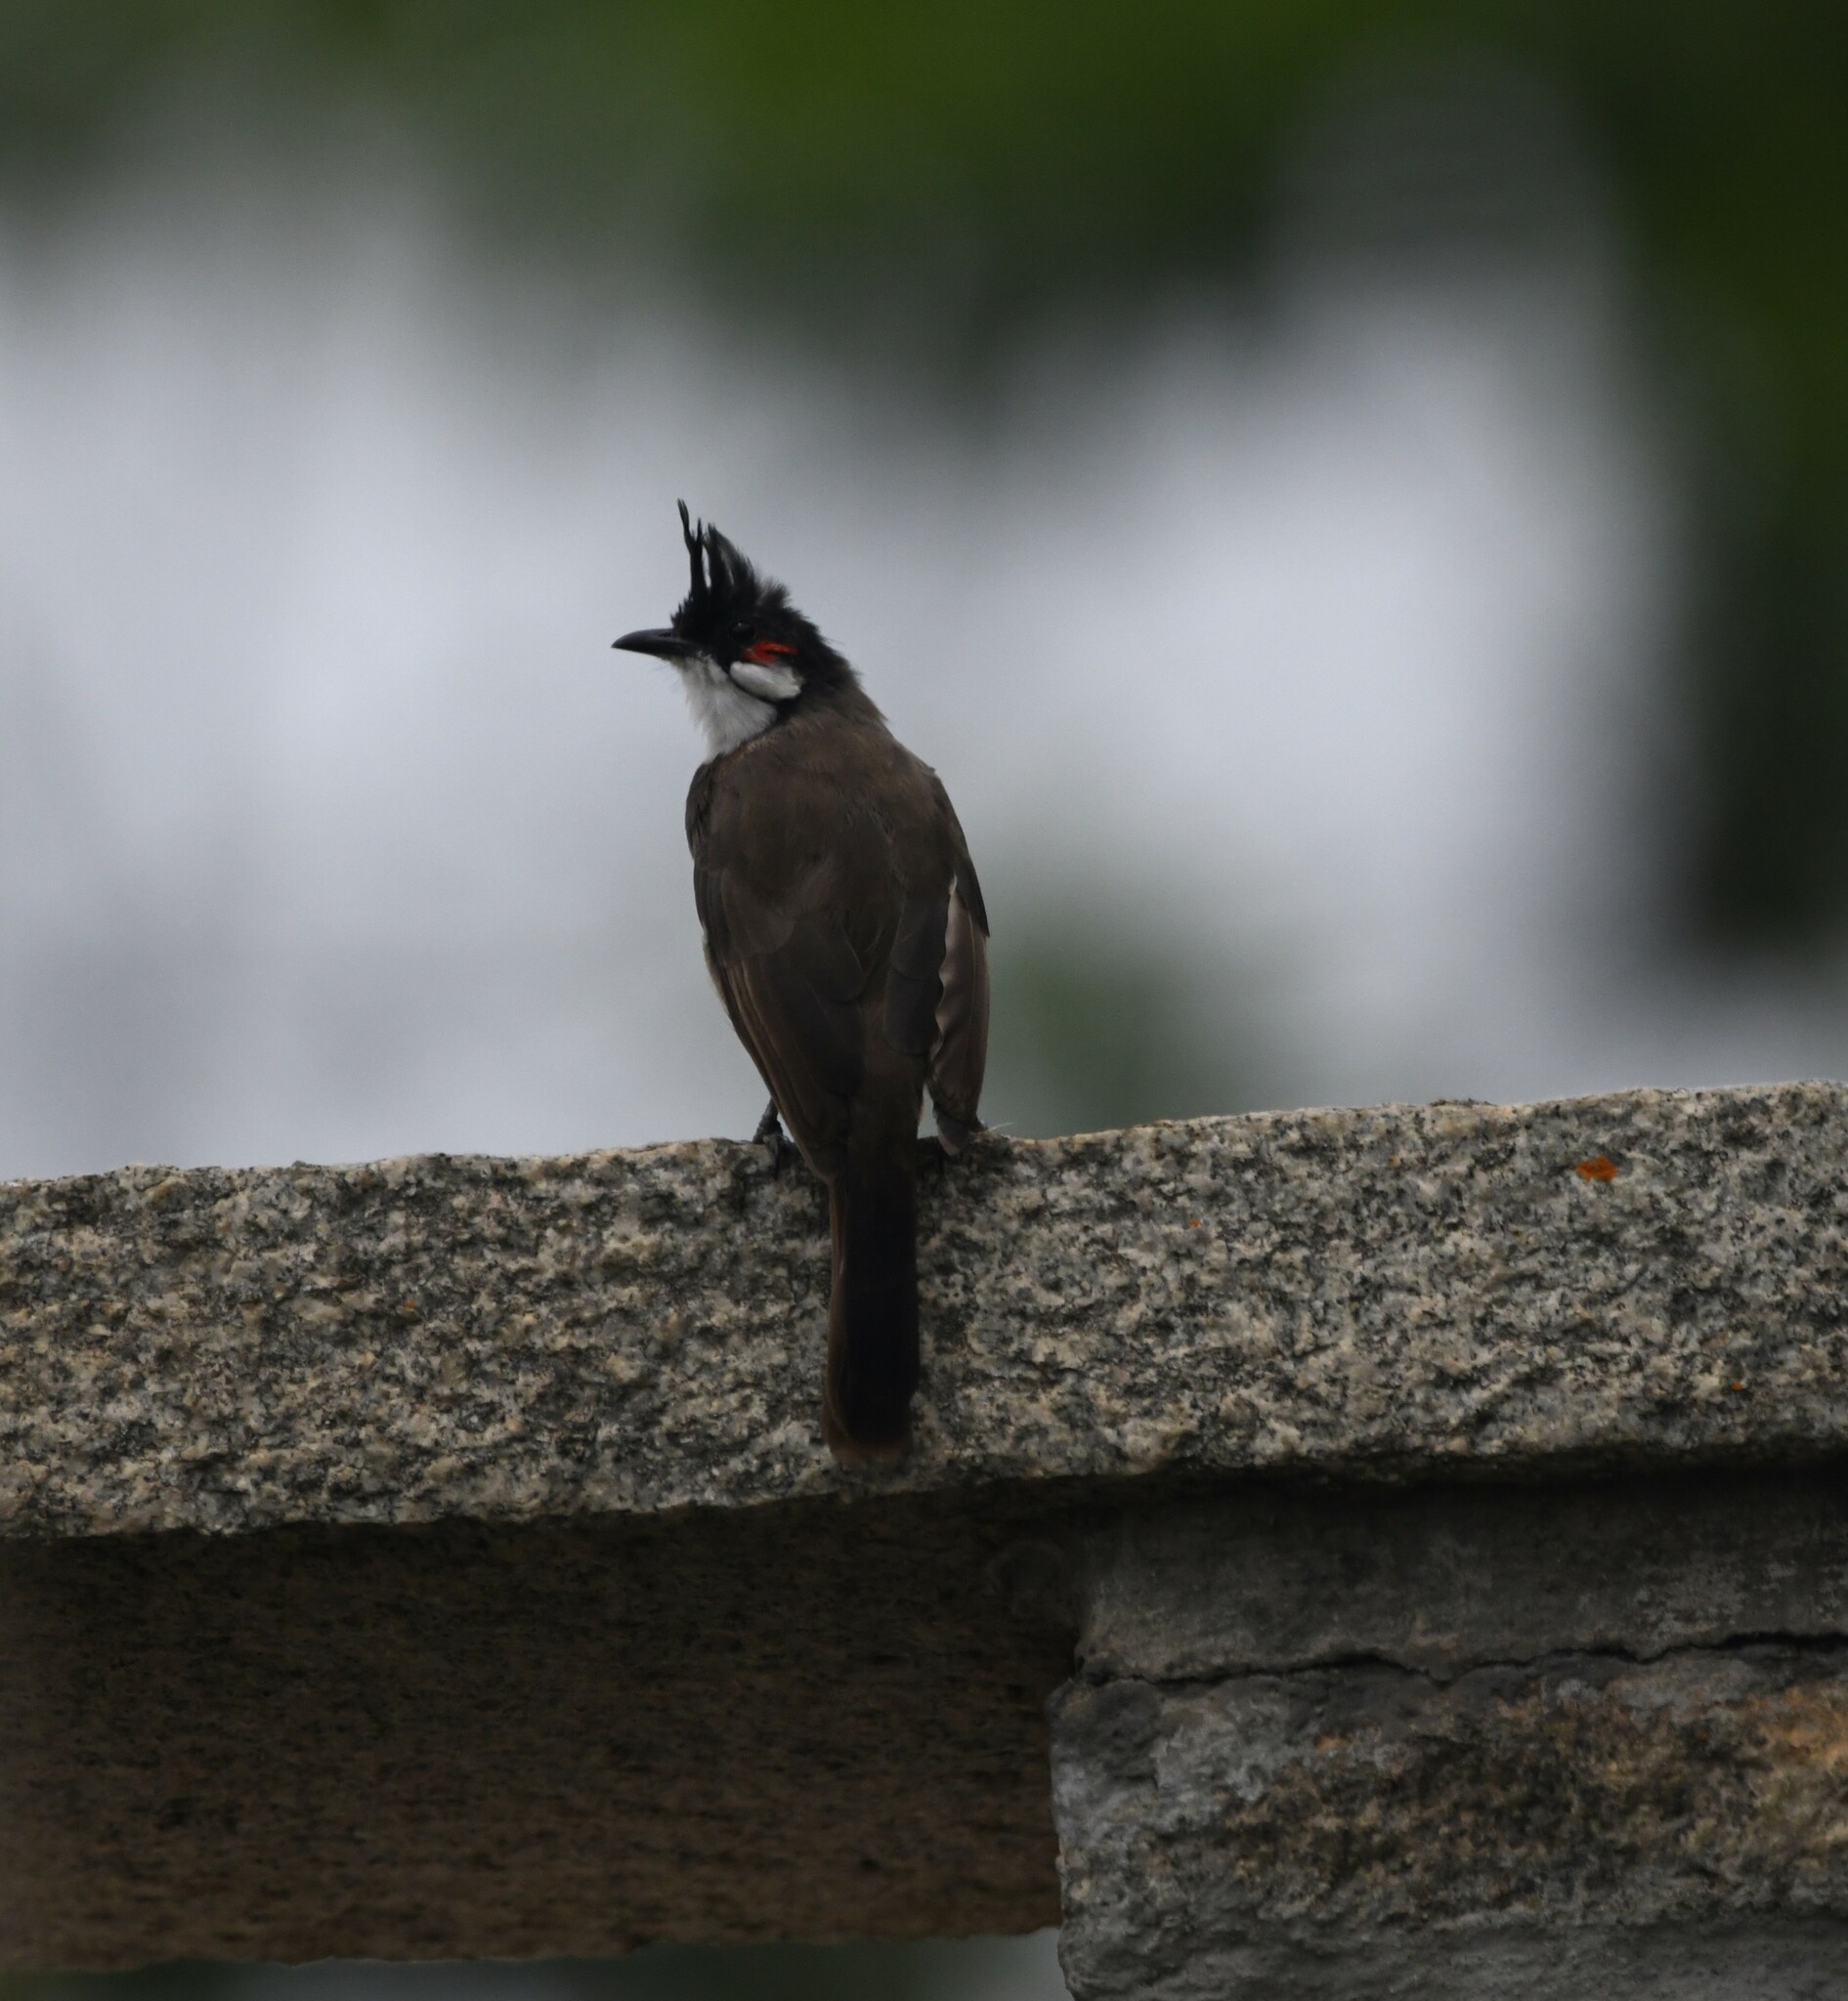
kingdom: Animalia
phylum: Chordata
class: Aves
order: Passeriformes
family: Pycnonotidae
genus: Pycnonotus
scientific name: Pycnonotus jocosus
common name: Red-whiskered bulbul
